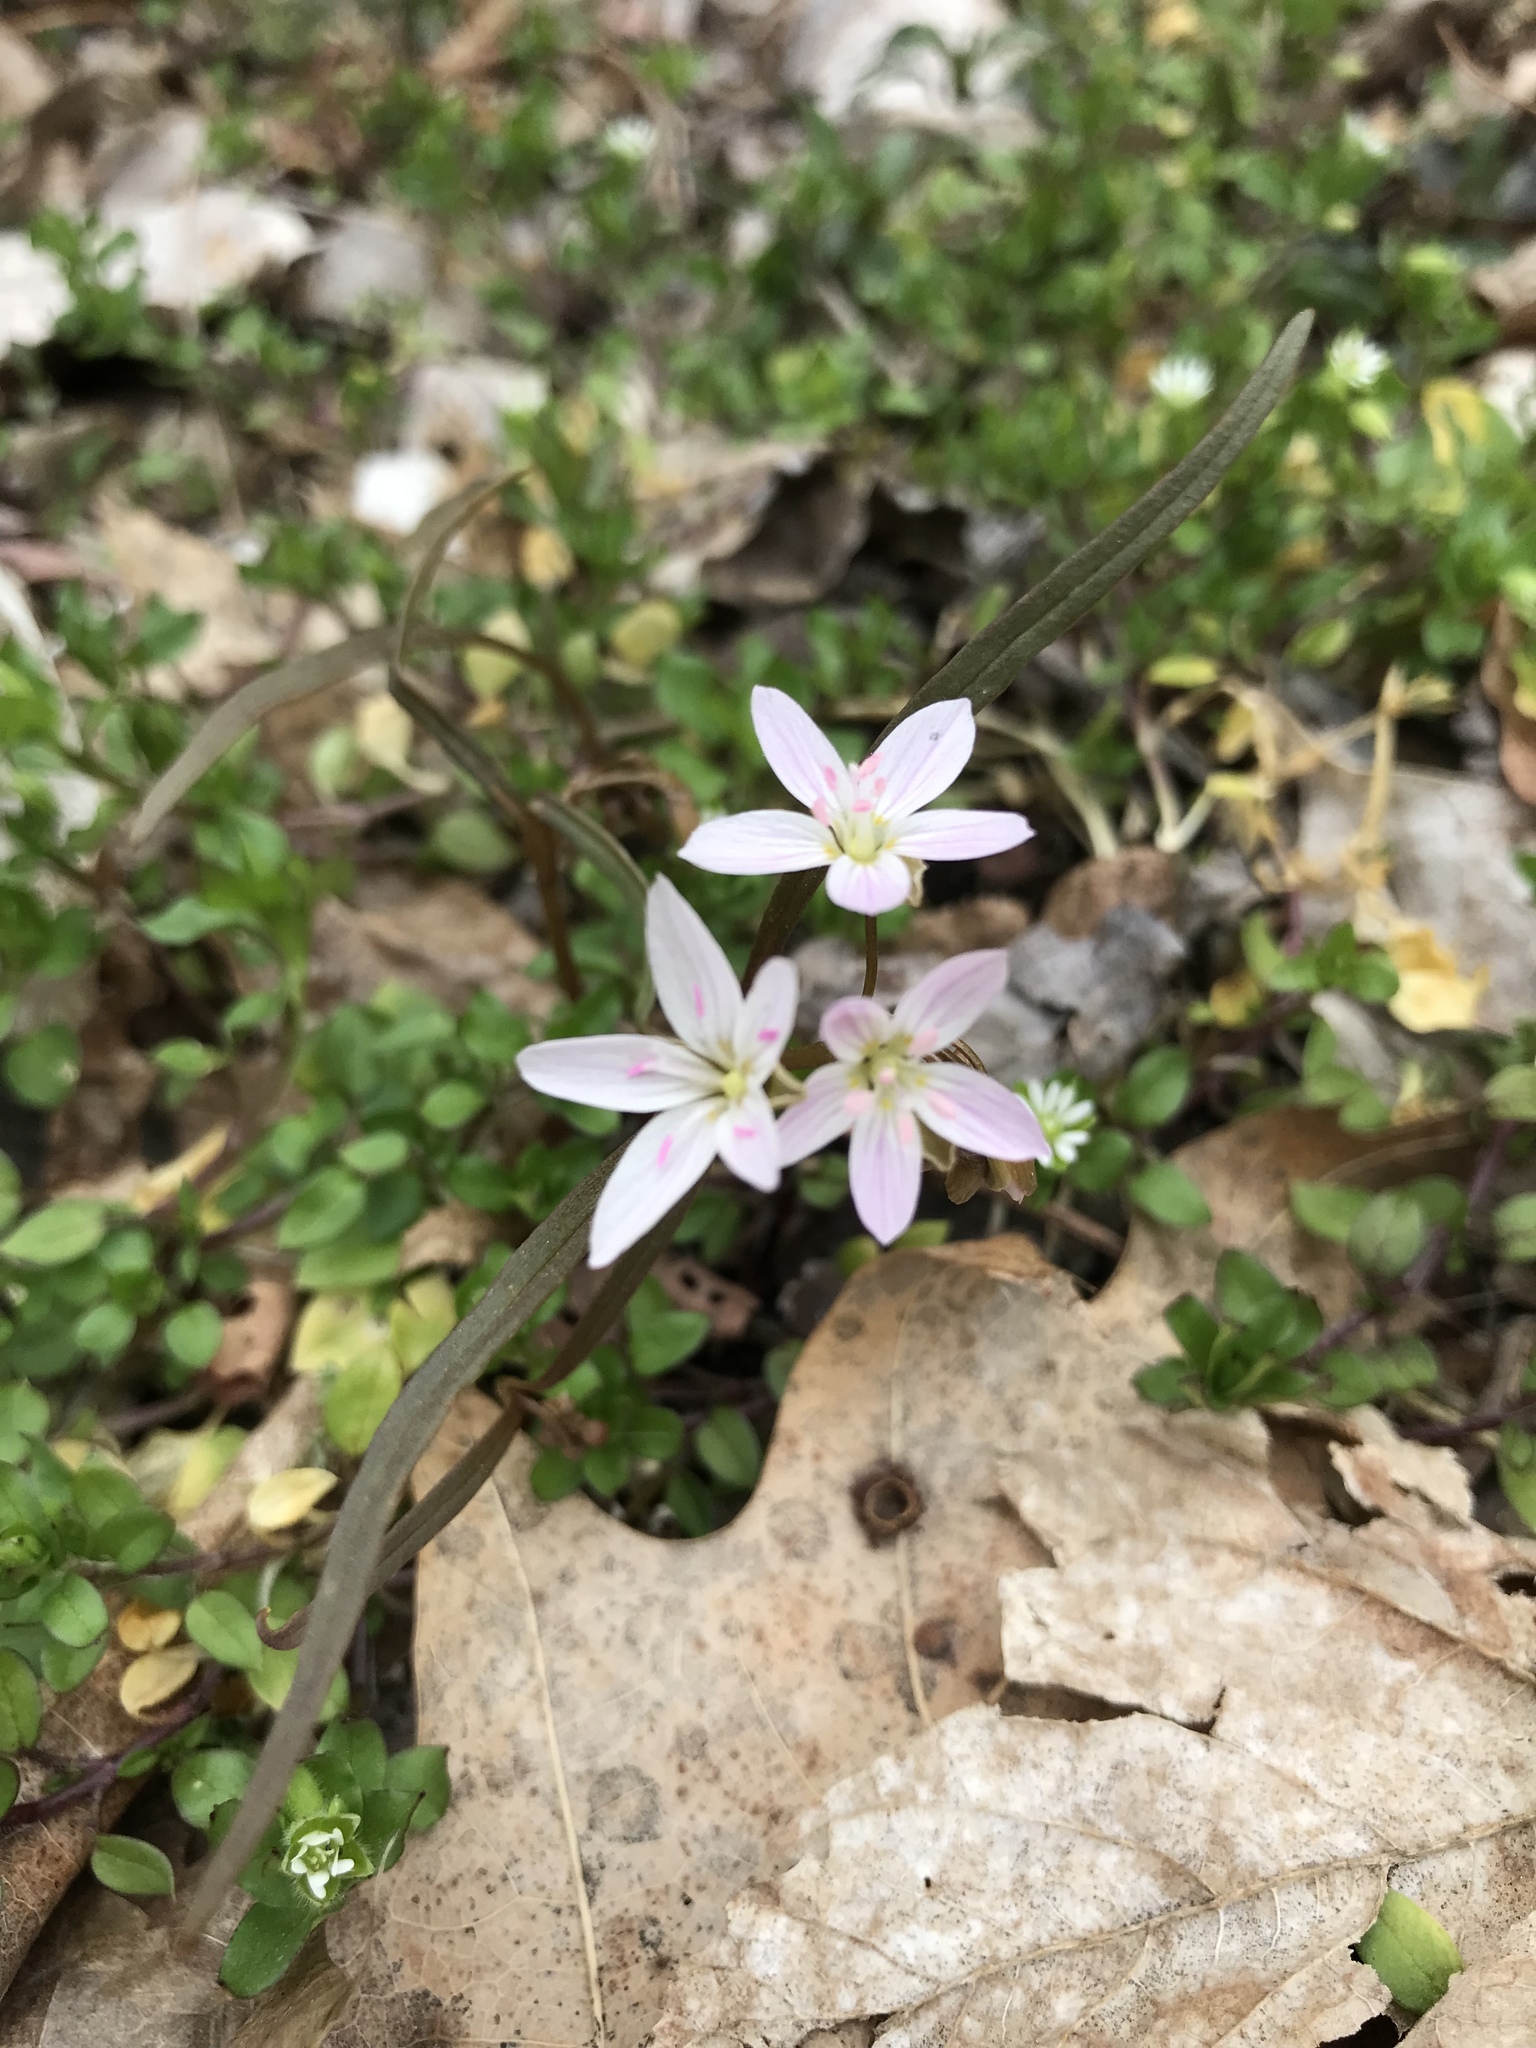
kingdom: Plantae
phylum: Tracheophyta
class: Magnoliopsida
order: Caryophyllales
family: Montiaceae
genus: Claytonia
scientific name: Claytonia virginica
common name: Virginia springbeauty
